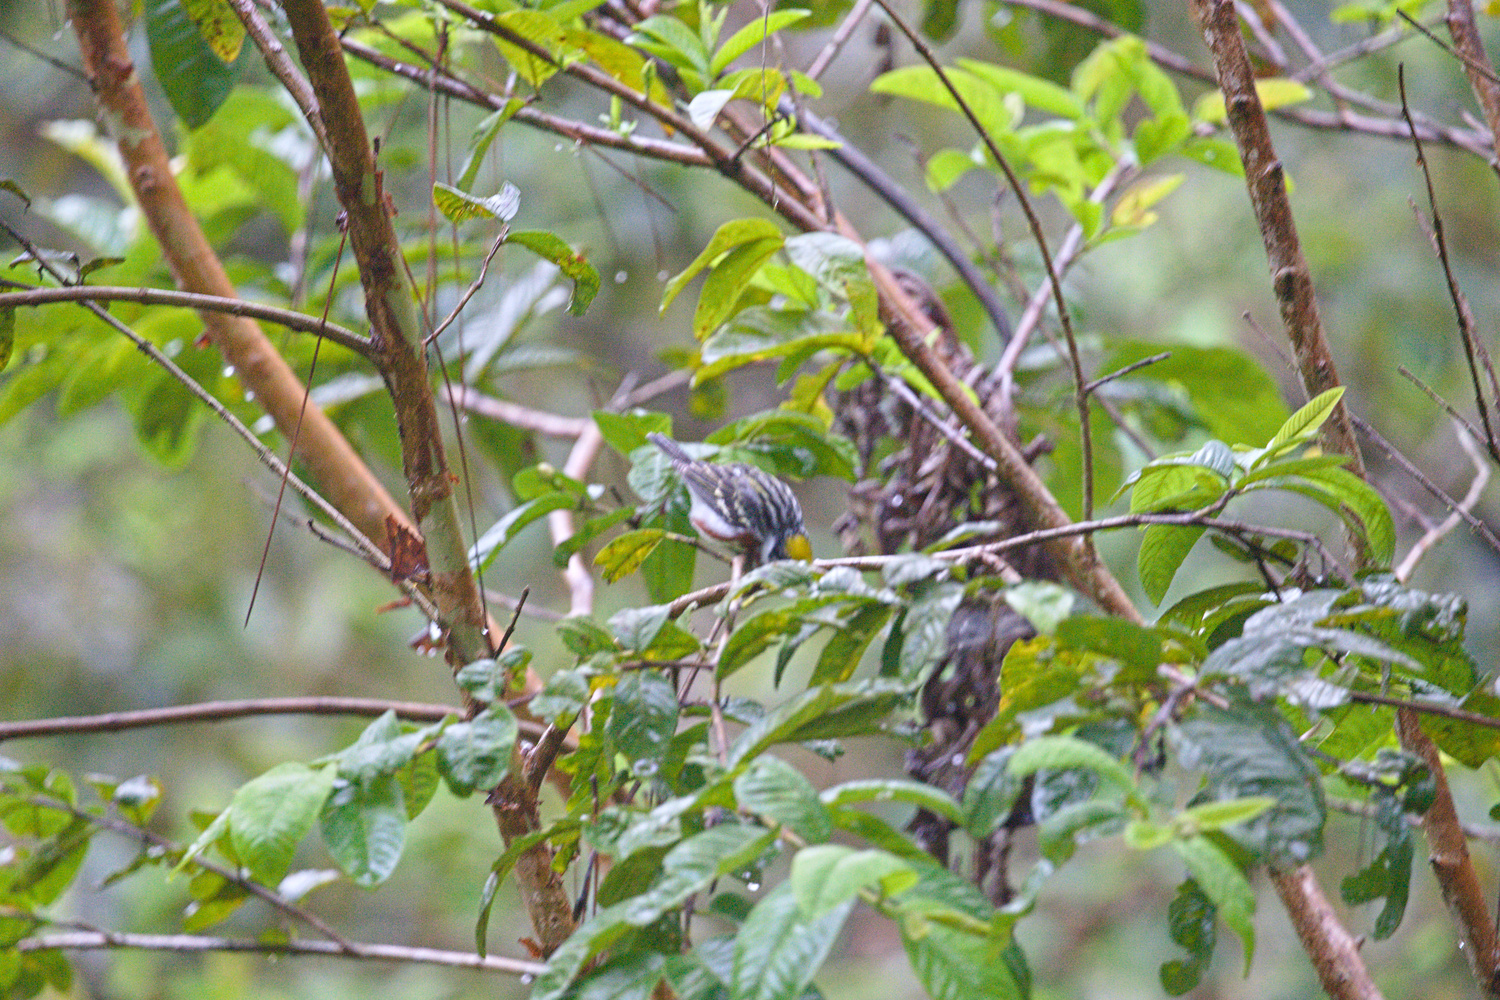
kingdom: Animalia
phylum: Chordata
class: Aves
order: Passeriformes
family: Parulidae
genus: Setophaga
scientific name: Setophaga pensylvanica
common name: Chestnut-sided warbler
